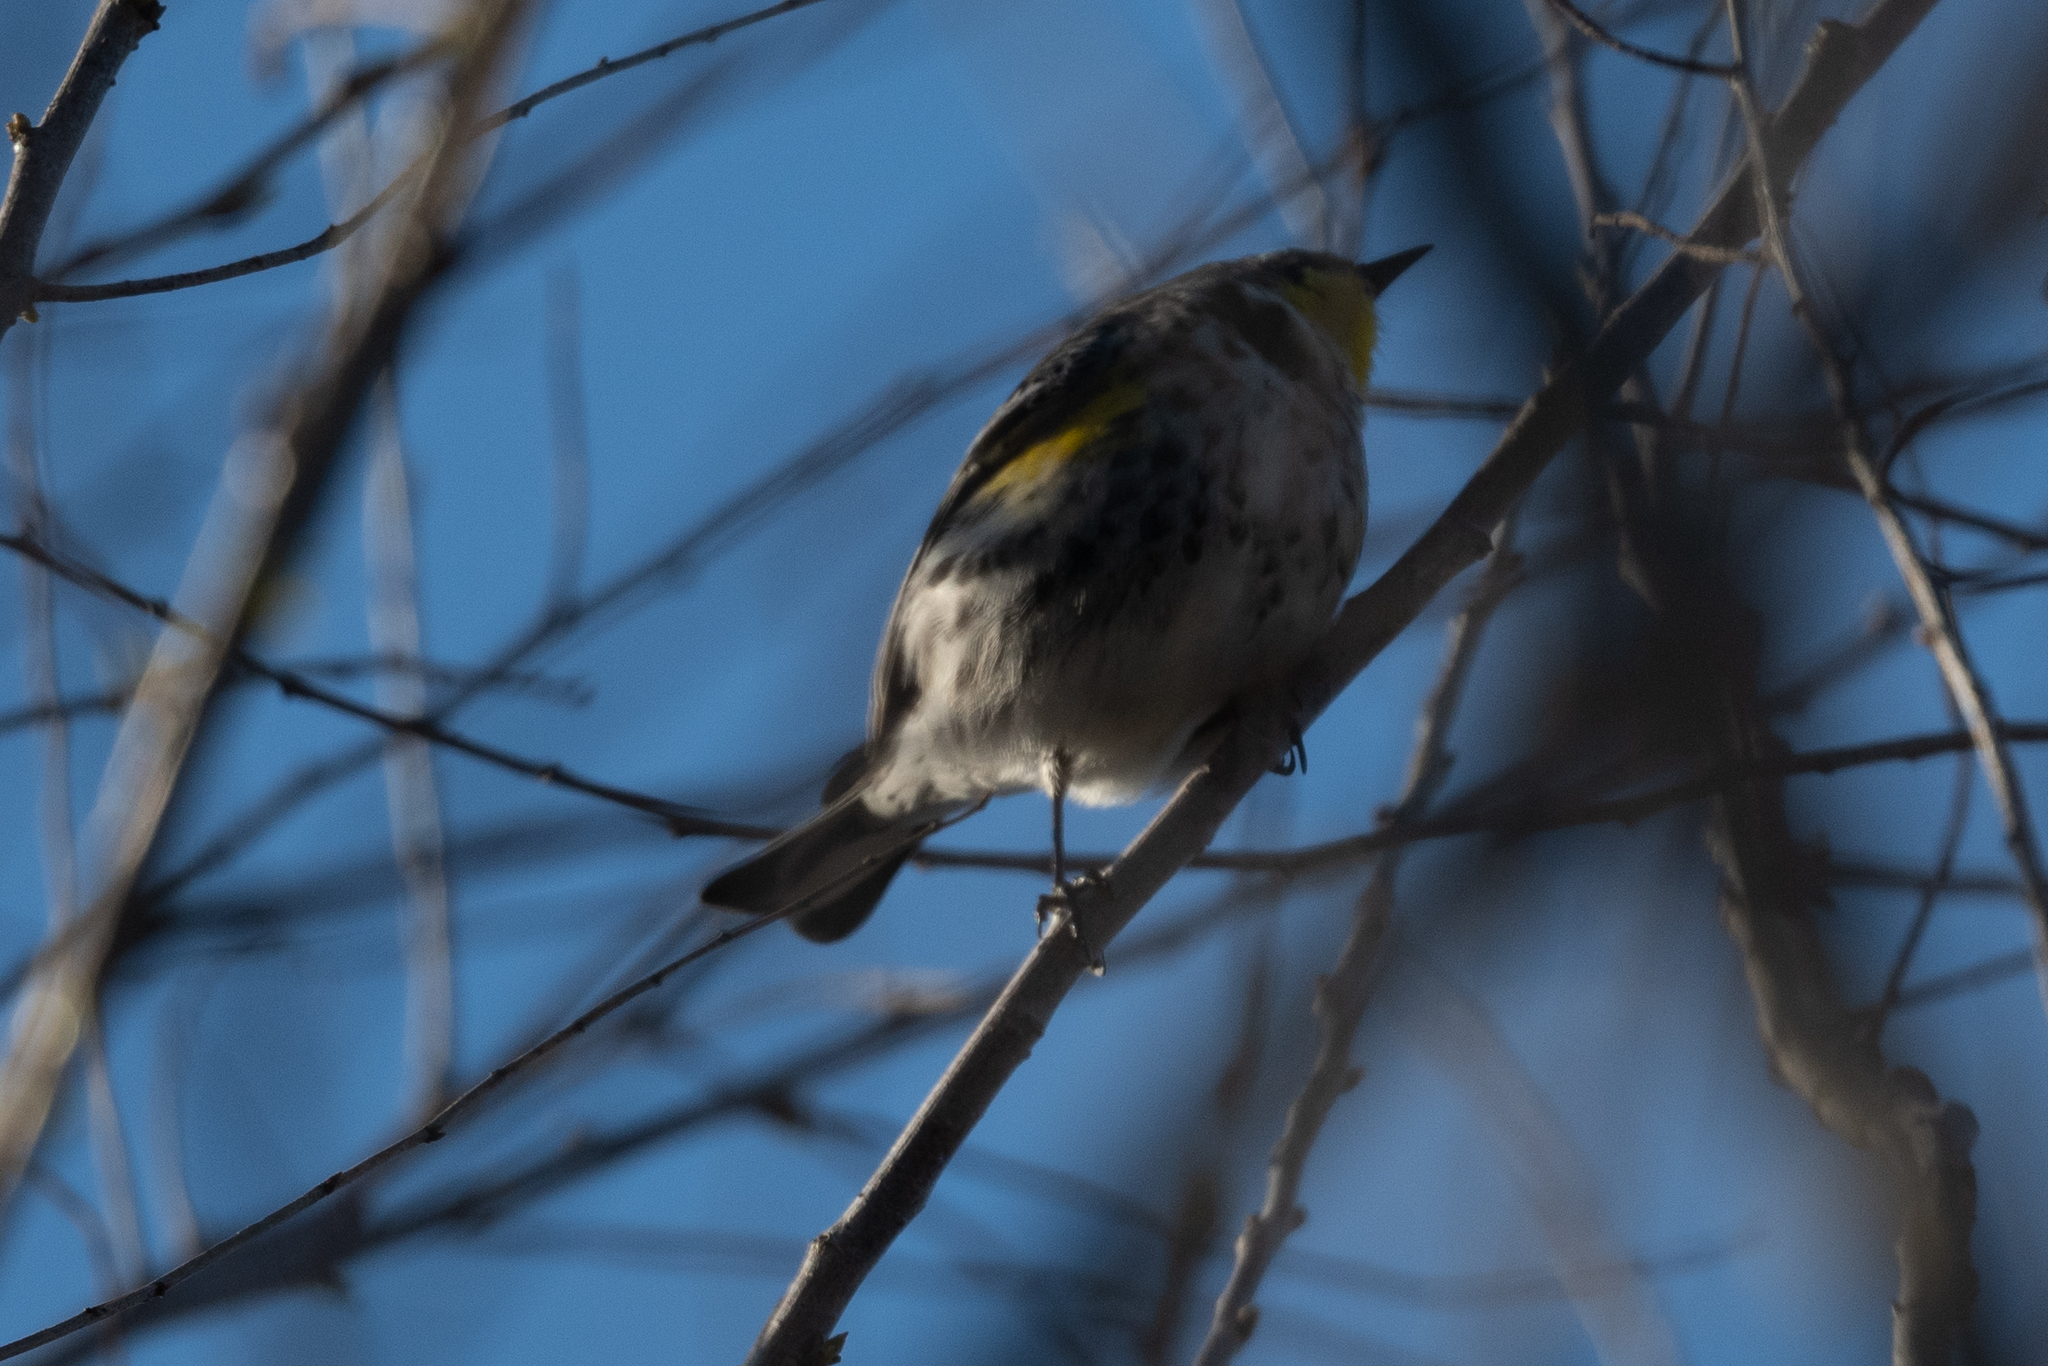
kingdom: Animalia
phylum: Chordata
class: Aves
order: Passeriformes
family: Parulidae
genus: Setophaga
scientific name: Setophaga coronata
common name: Myrtle warbler
